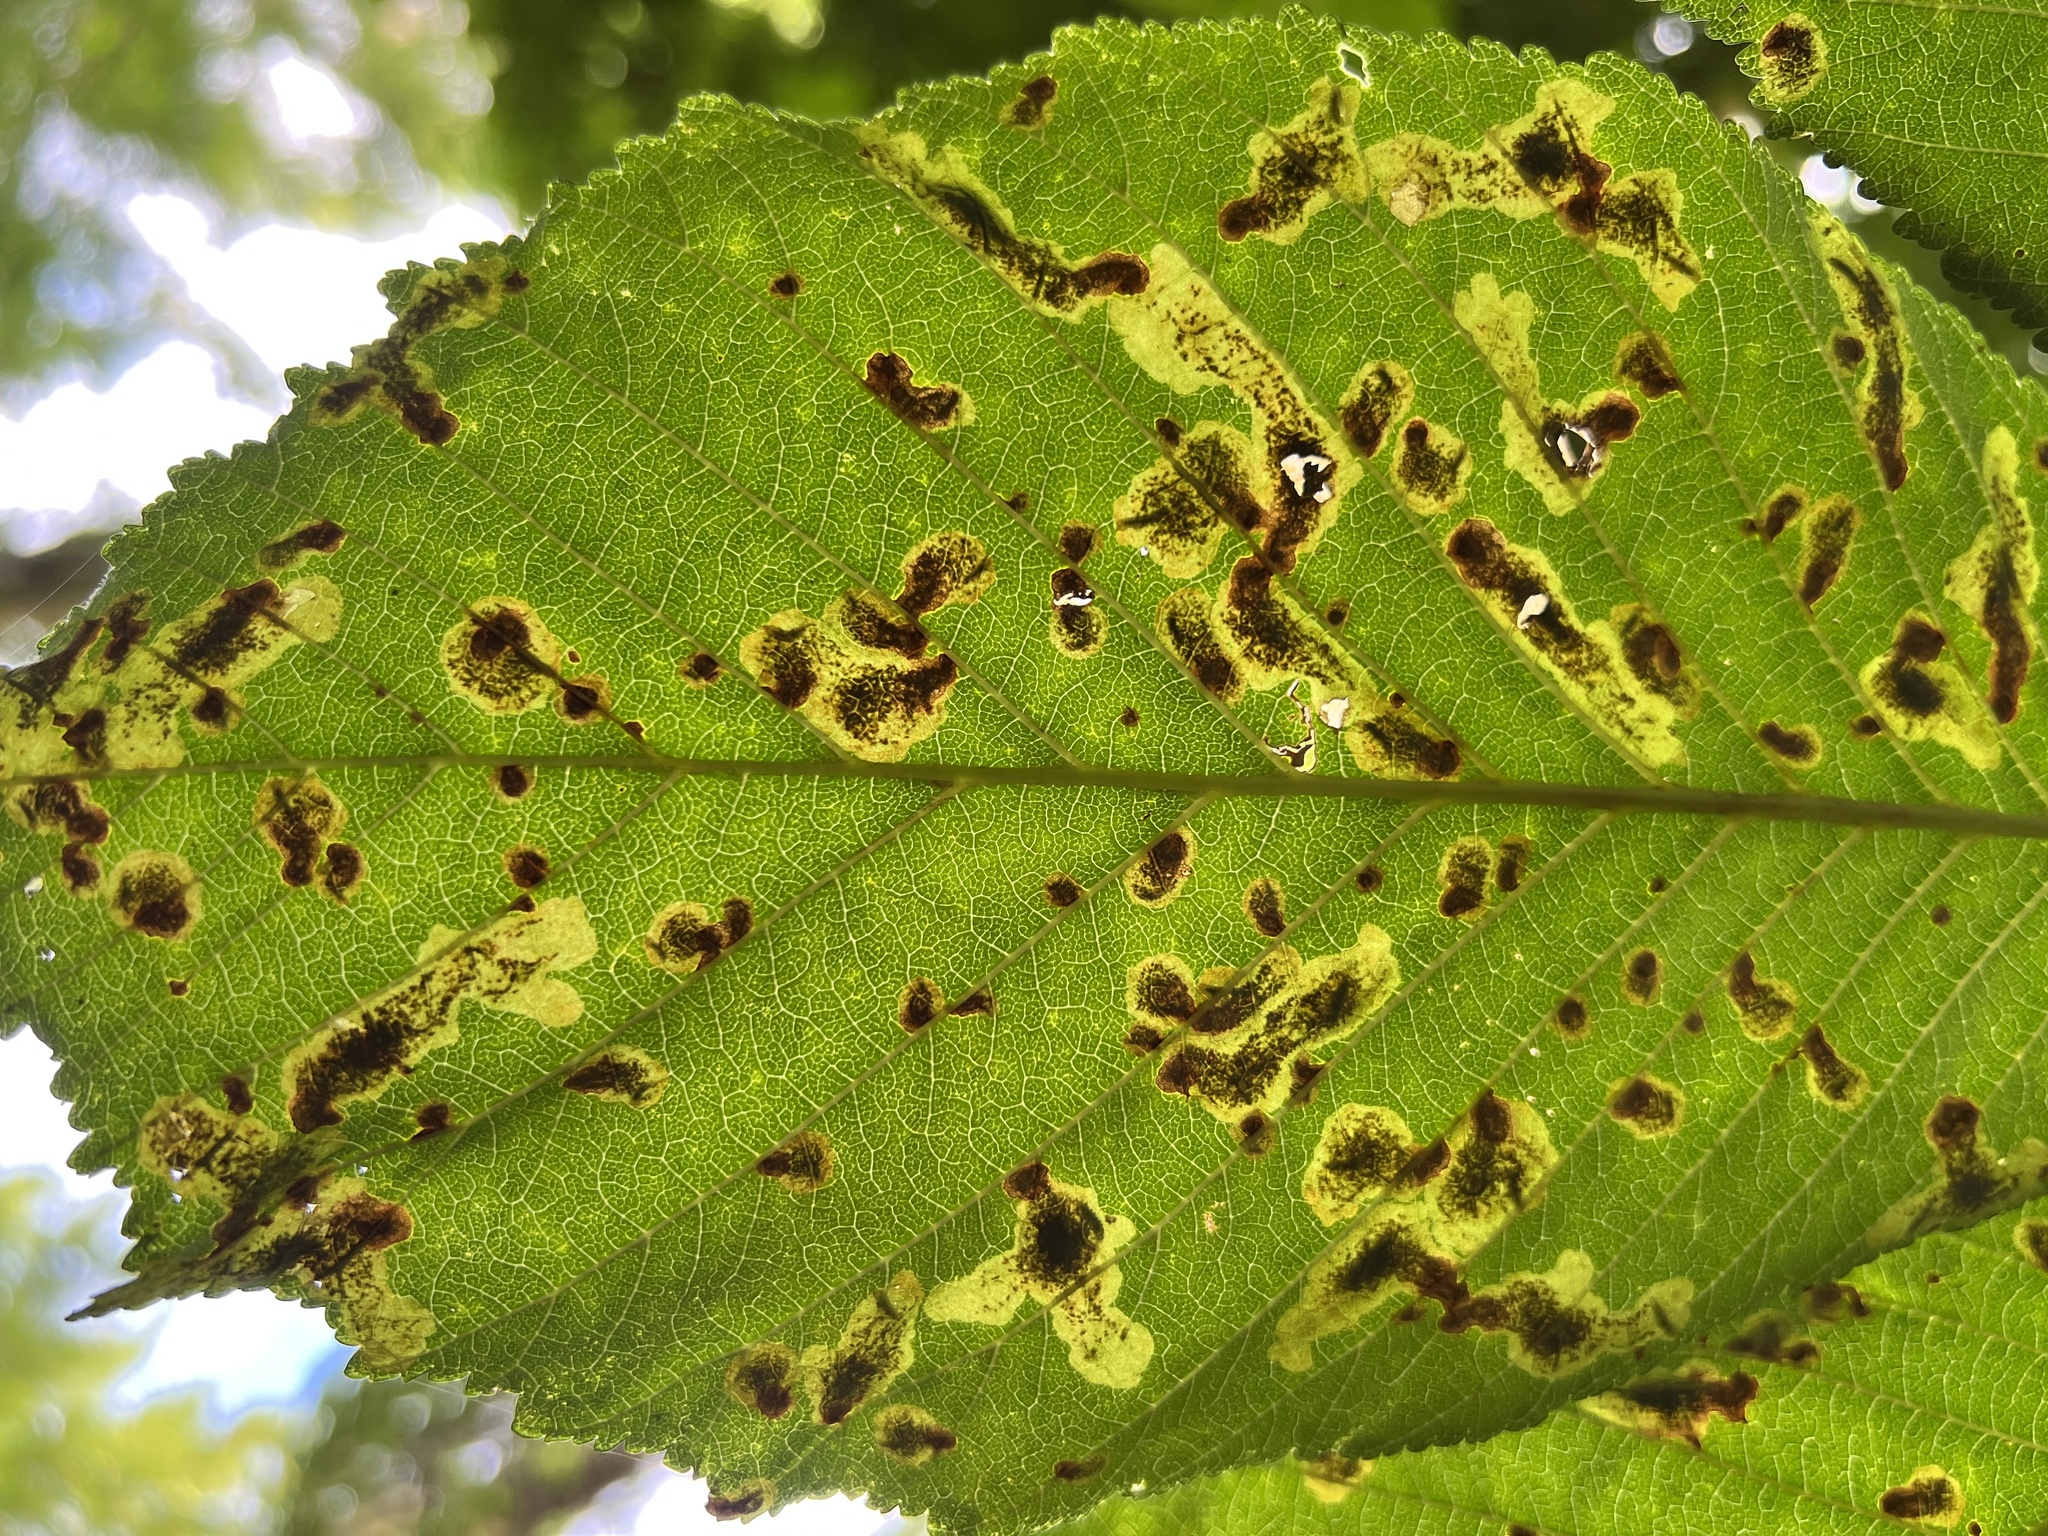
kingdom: Animalia
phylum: Arthropoda
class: Insecta
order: Lepidoptera
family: Gracillariidae
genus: Cameraria
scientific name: Cameraria ohridella
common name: Horse-chestnut leaf-miner
